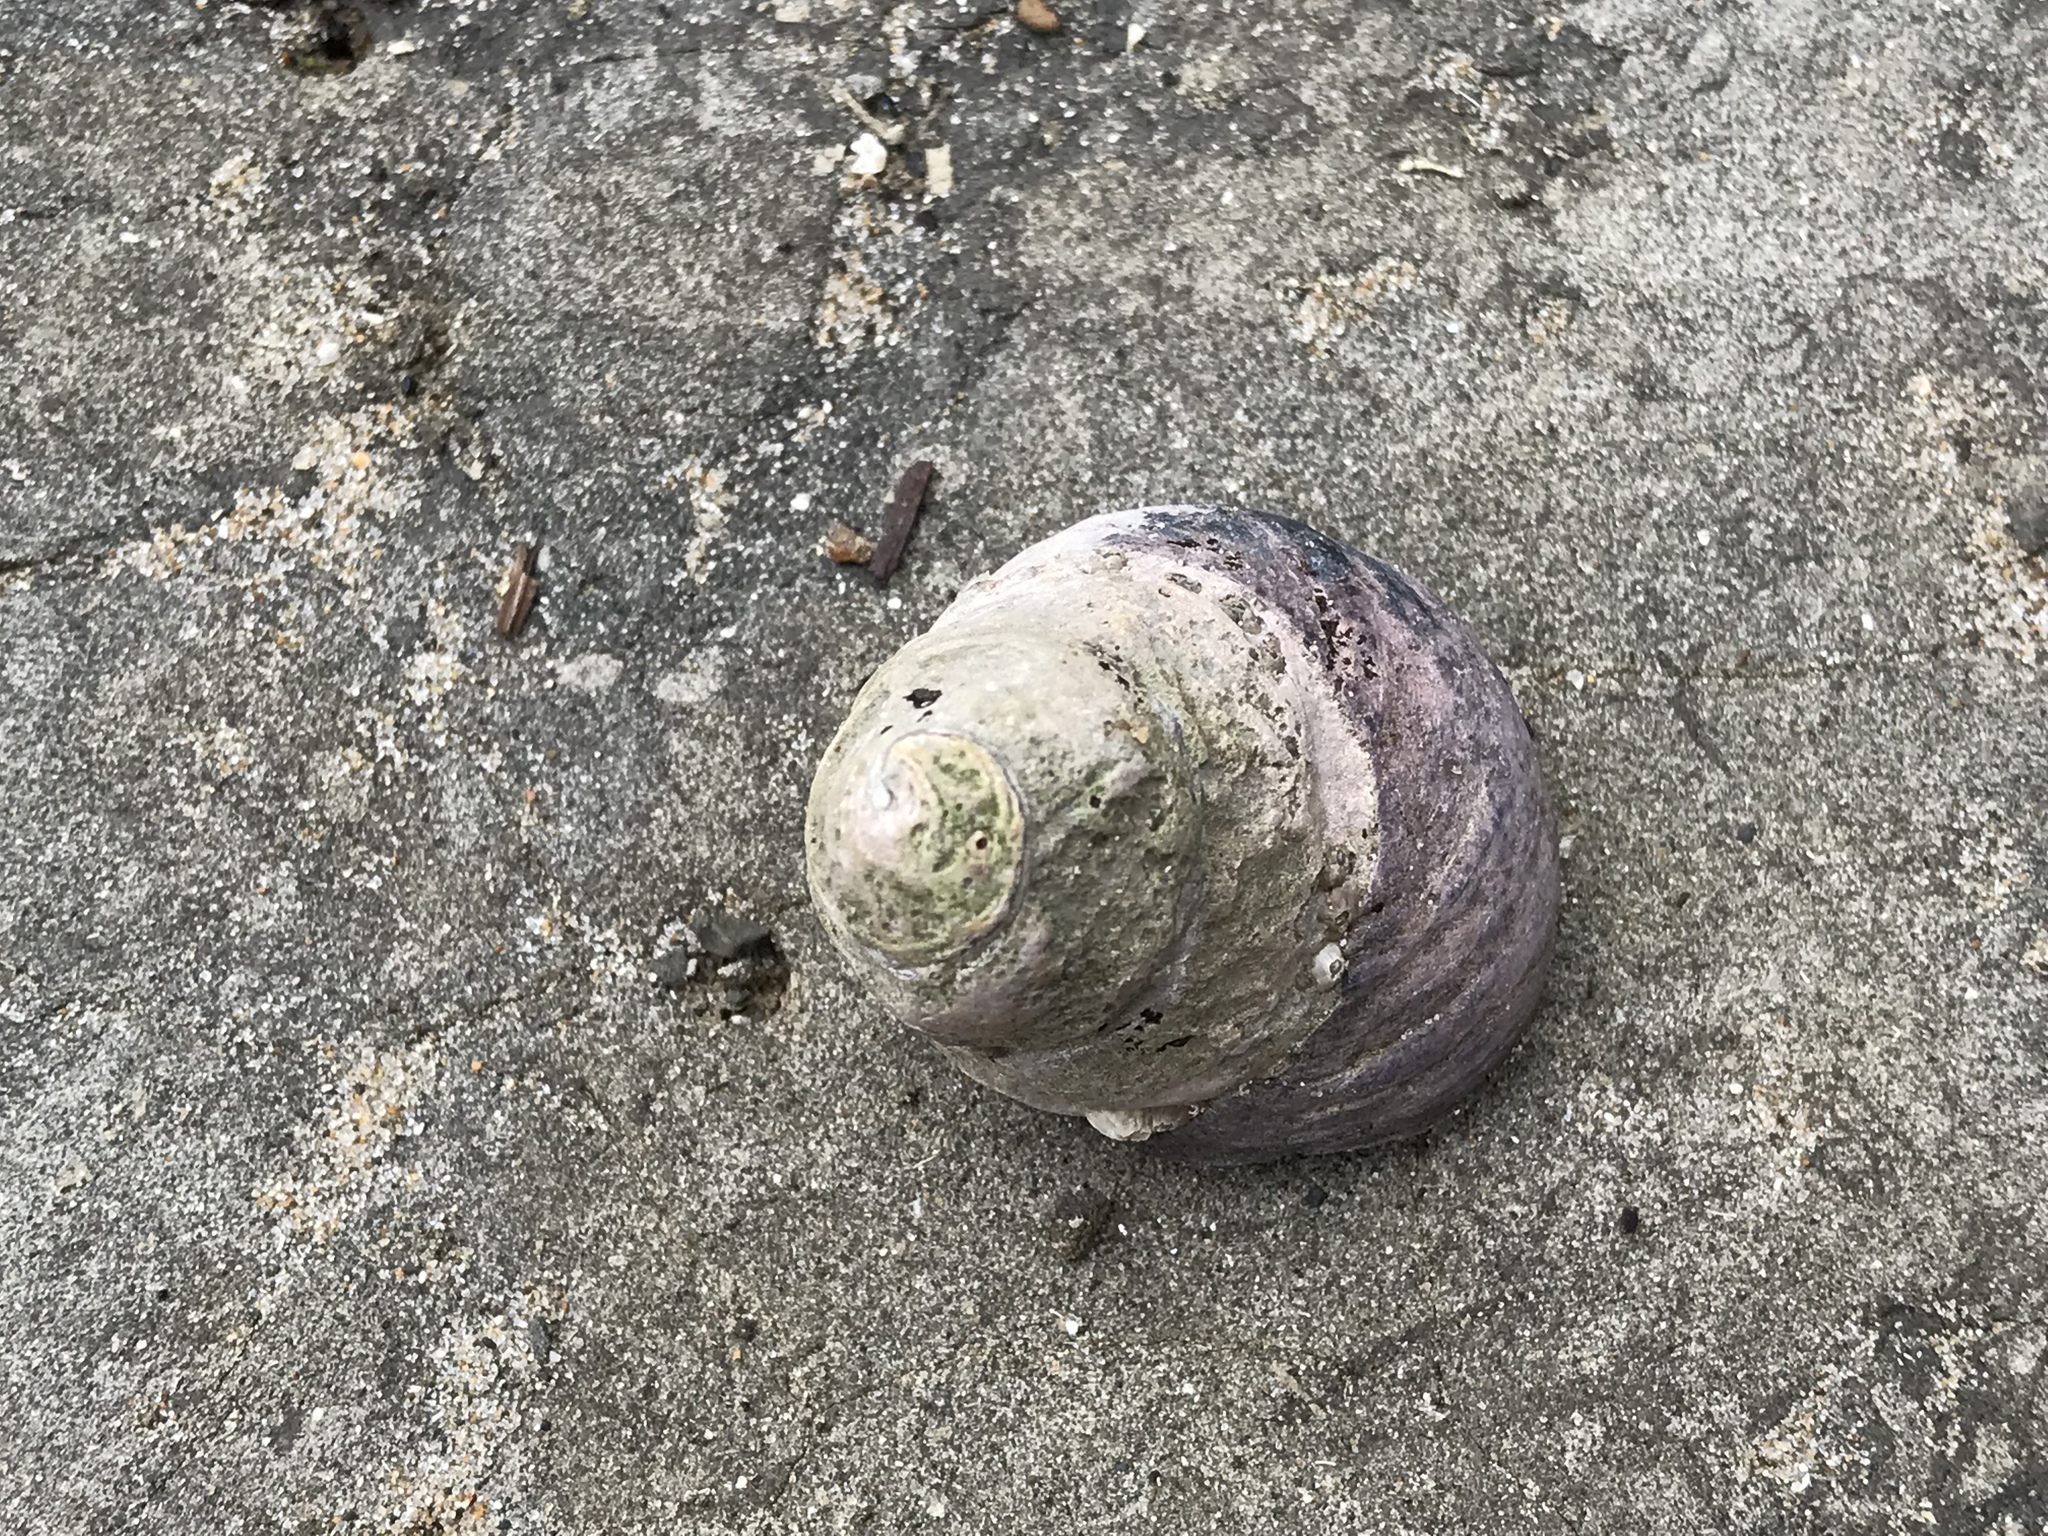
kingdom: Animalia
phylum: Mollusca
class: Gastropoda
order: Trochida
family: Tegulidae
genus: Tegula
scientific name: Tegula funebralis
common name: Black tegula
